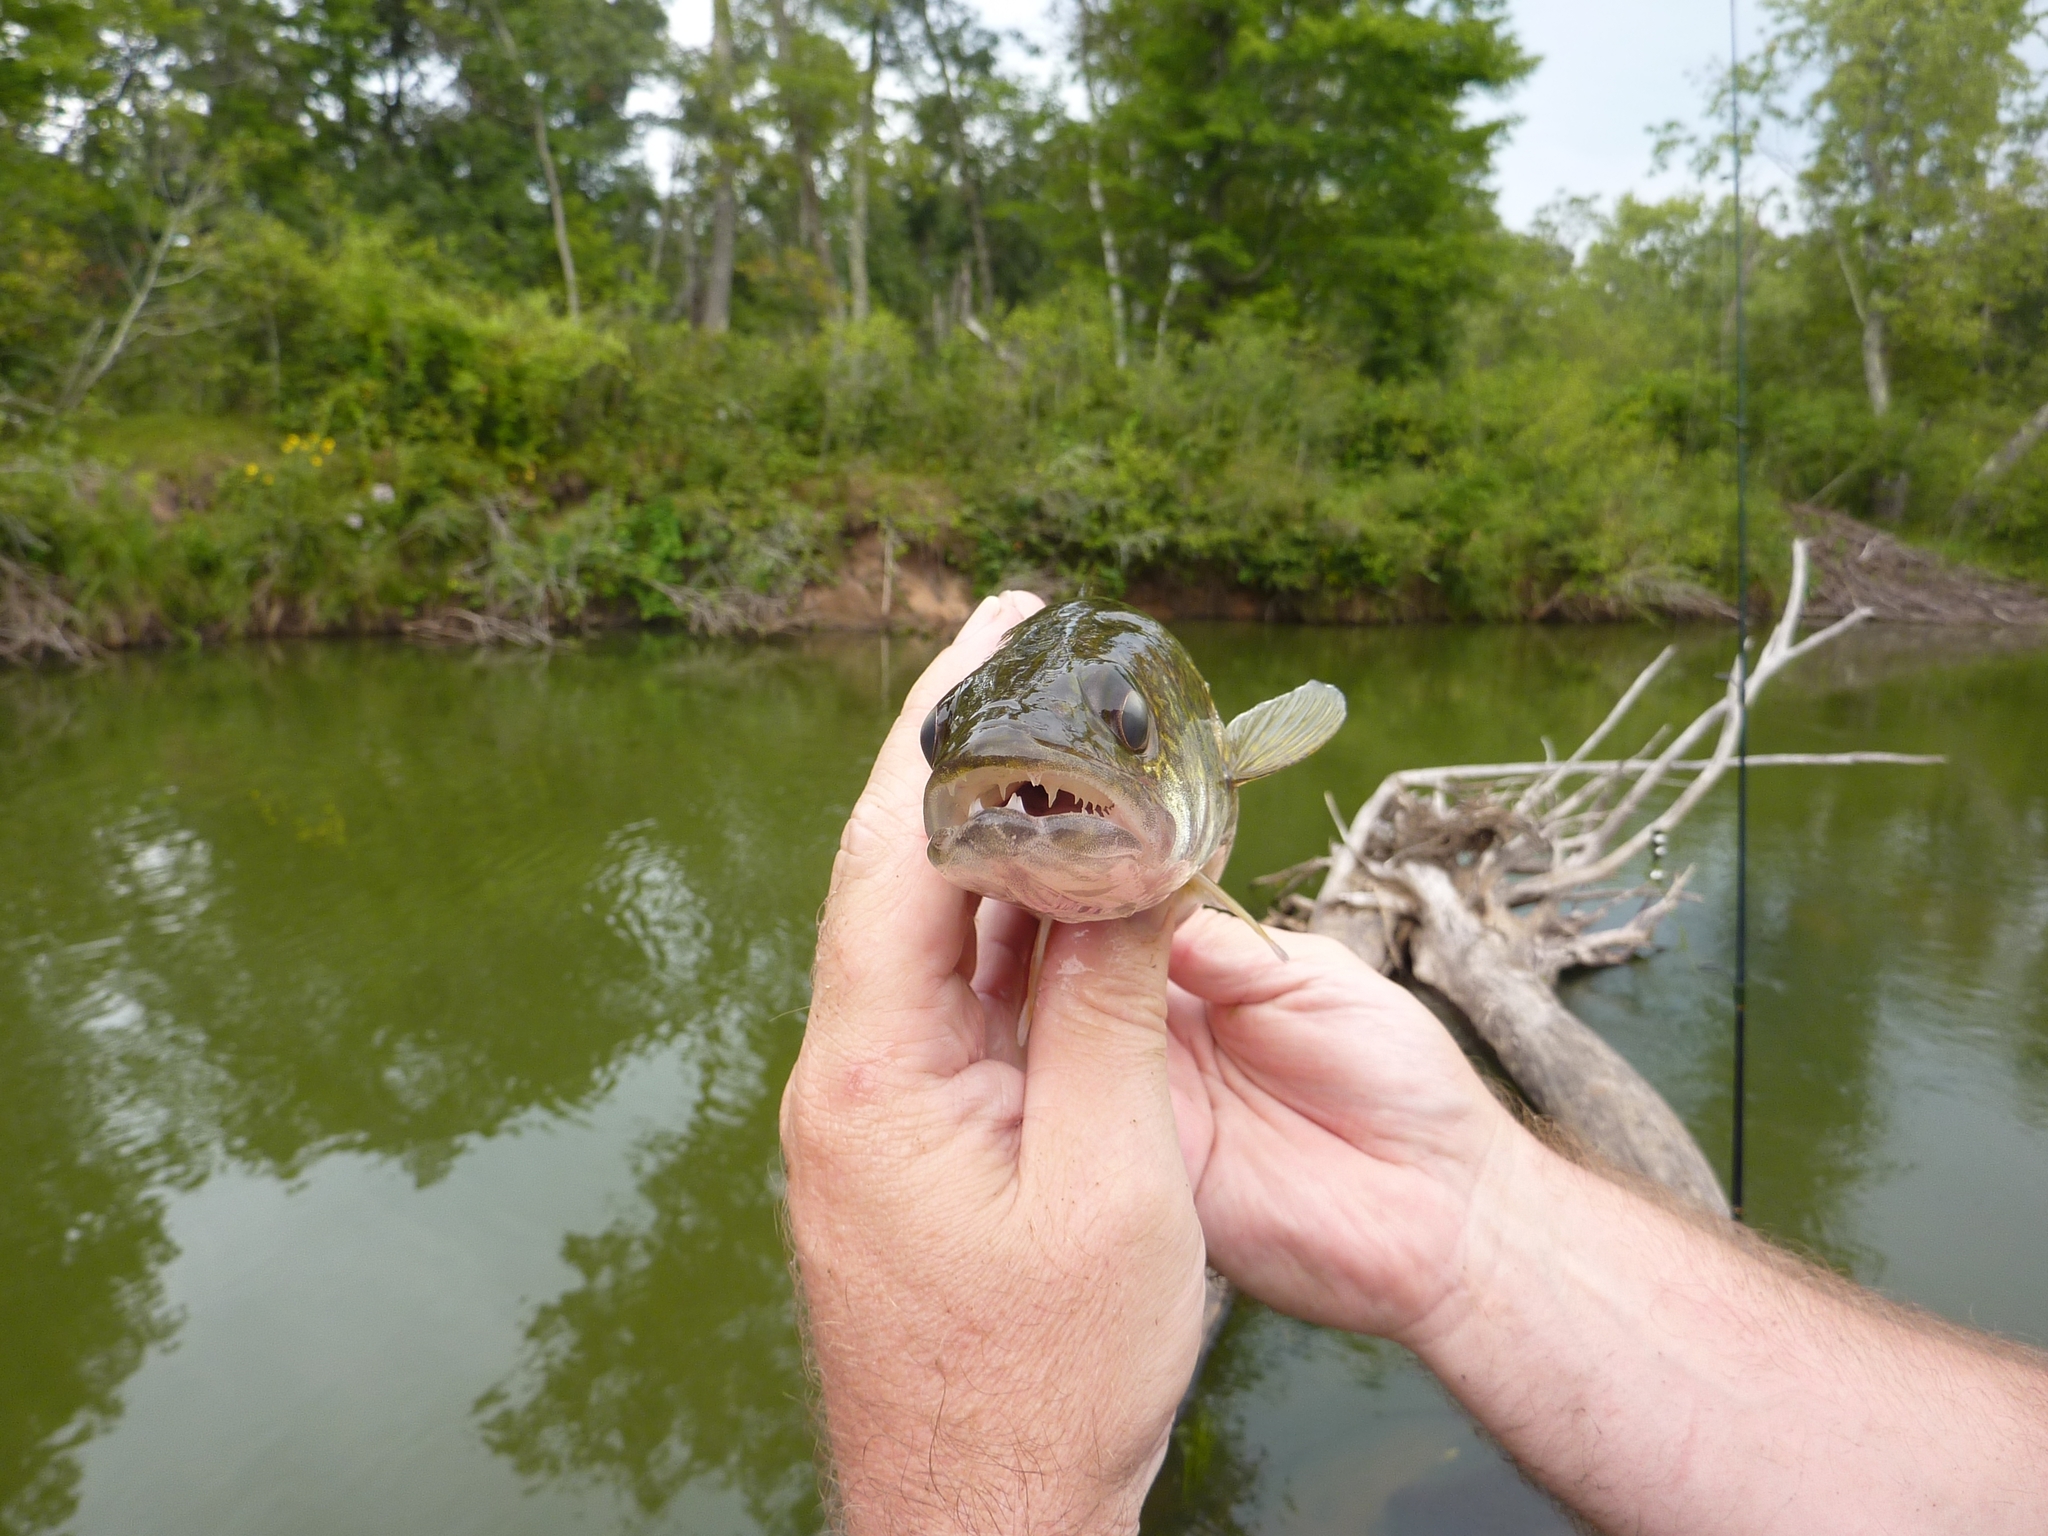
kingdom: Animalia
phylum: Chordata
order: Perciformes
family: Percidae
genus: Sander
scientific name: Sander vitreus
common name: Walleye
